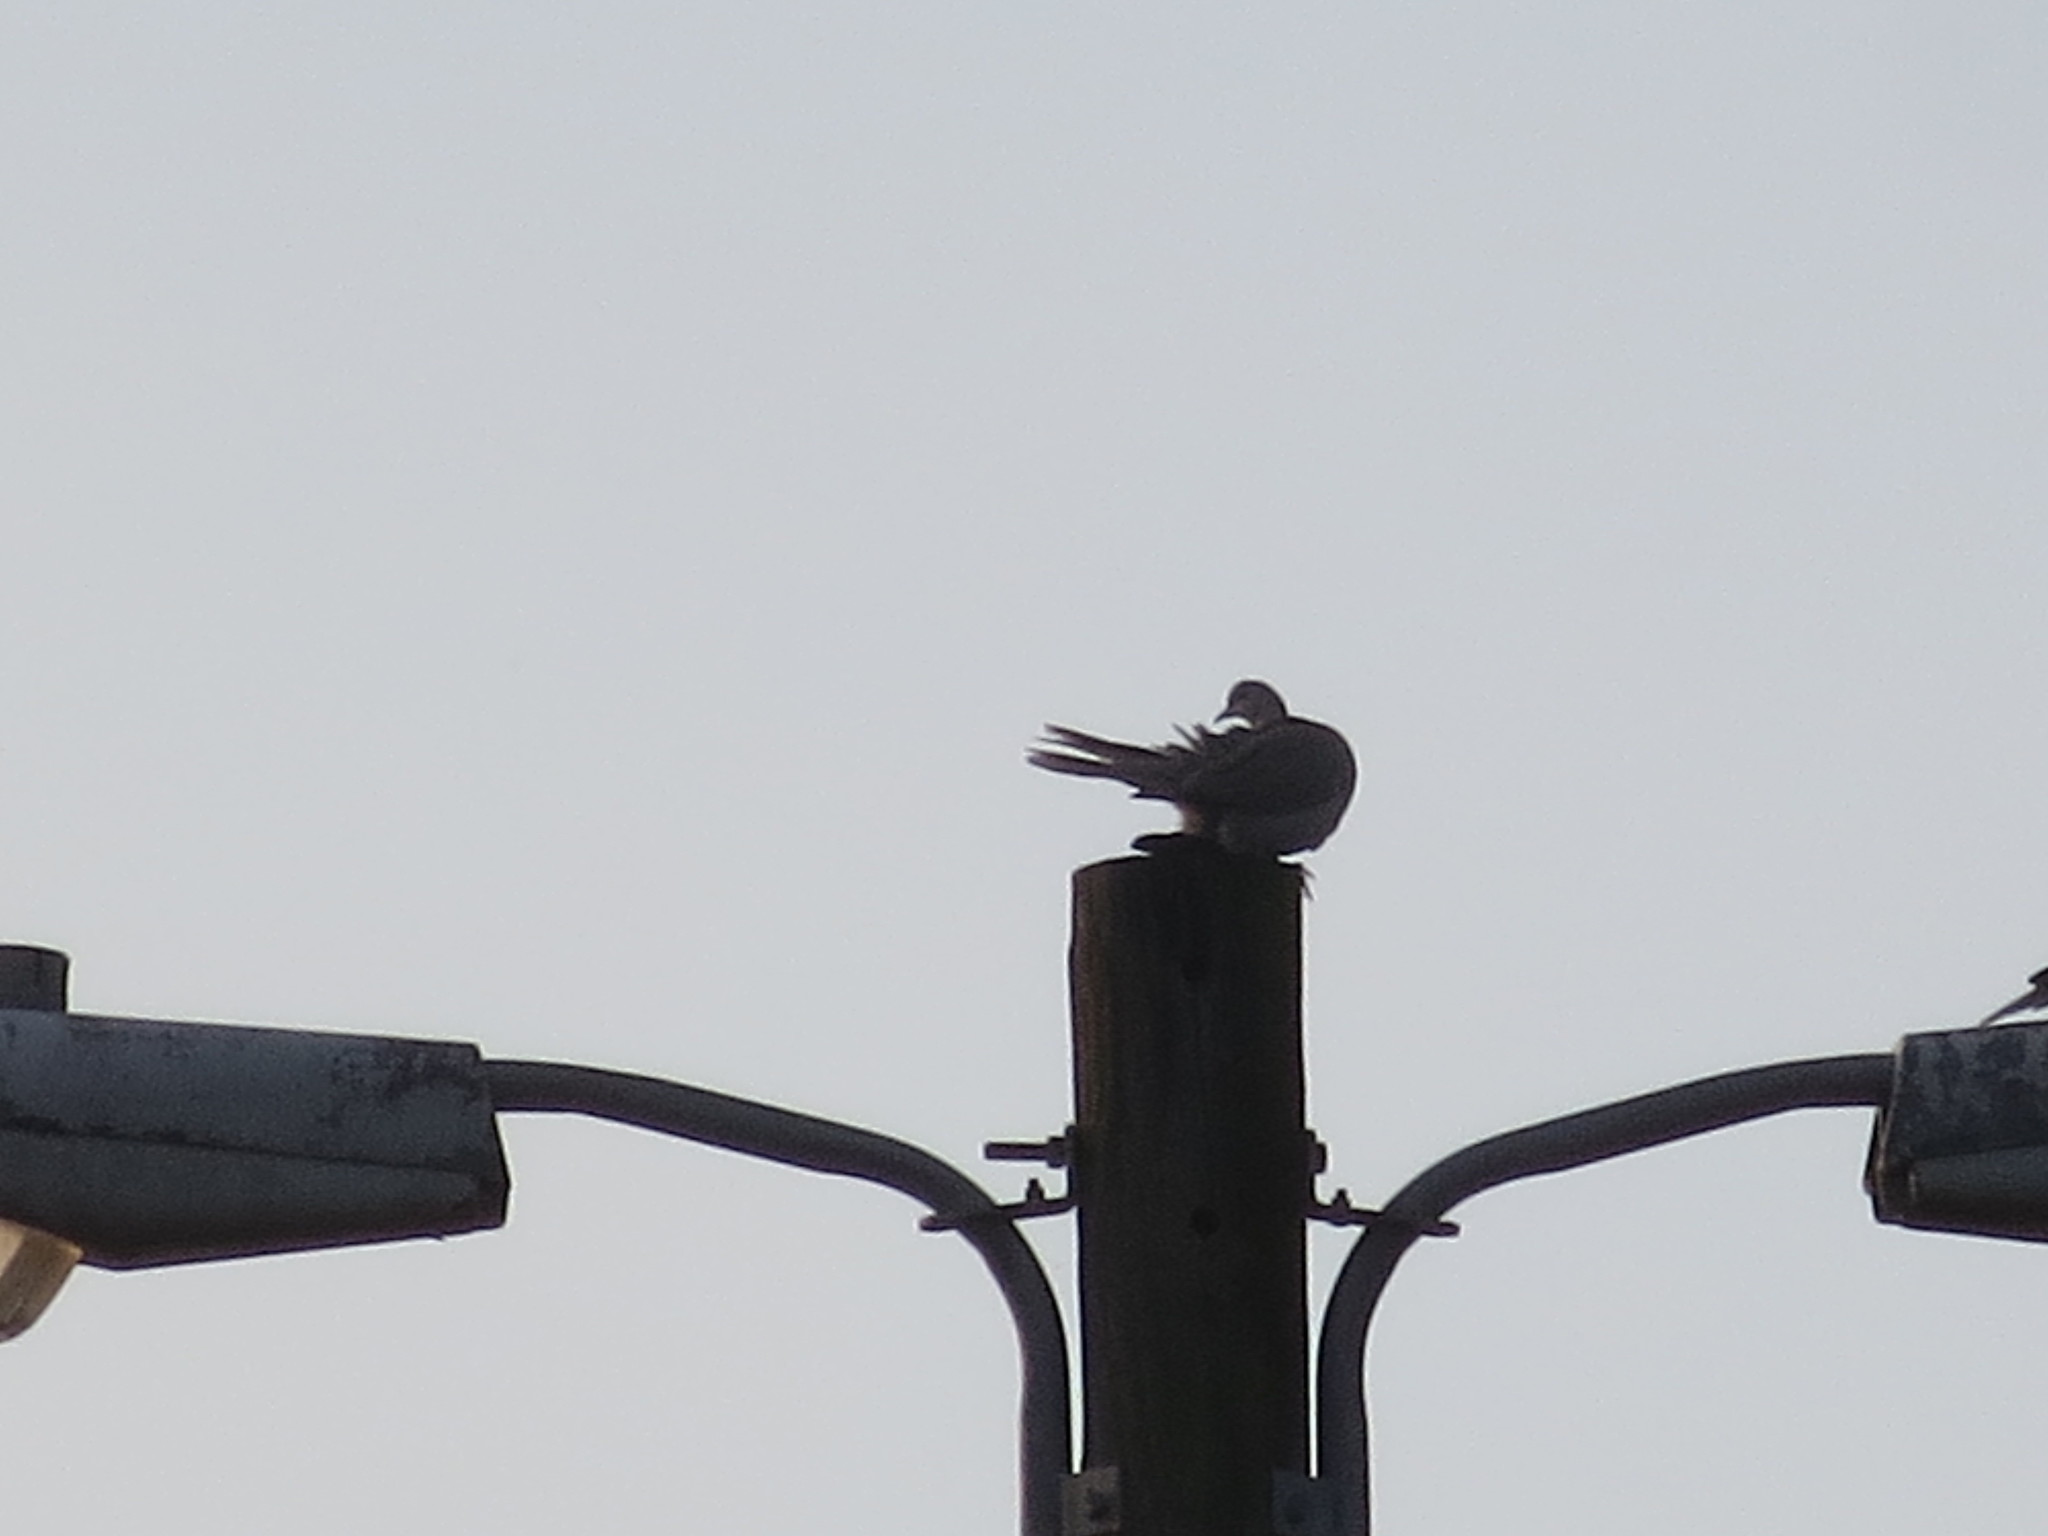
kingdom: Animalia
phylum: Chordata
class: Aves
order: Columbiformes
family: Columbidae
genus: Streptopelia
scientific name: Streptopelia decaocto
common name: Eurasian collared dove
